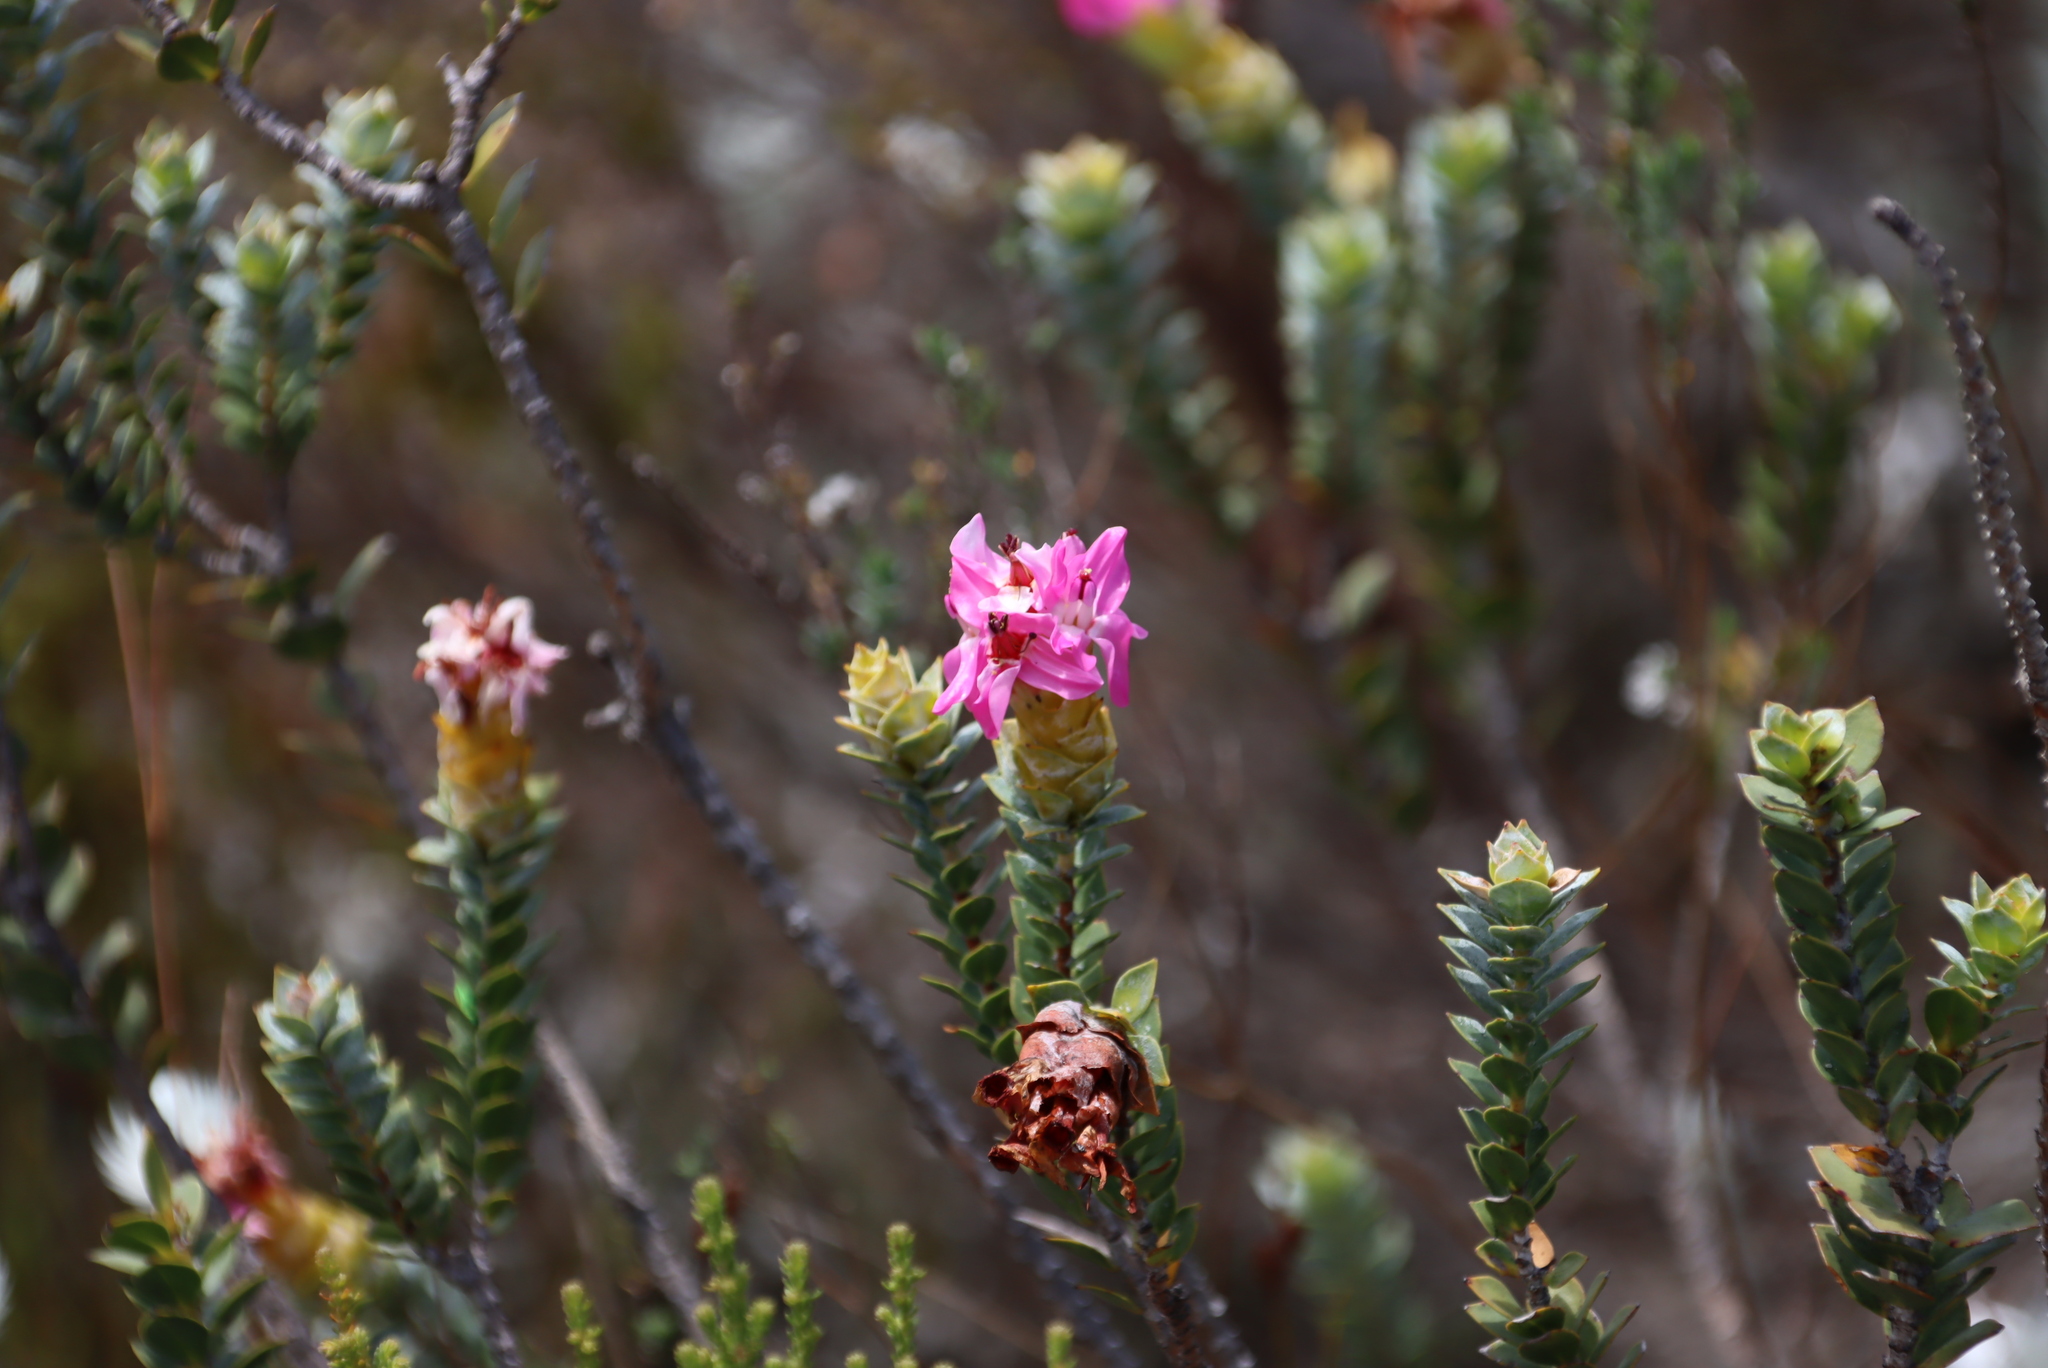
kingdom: Plantae
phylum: Tracheophyta
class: Magnoliopsida
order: Myrtales
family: Penaeaceae
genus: Saltera
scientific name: Saltera sarcocolla
